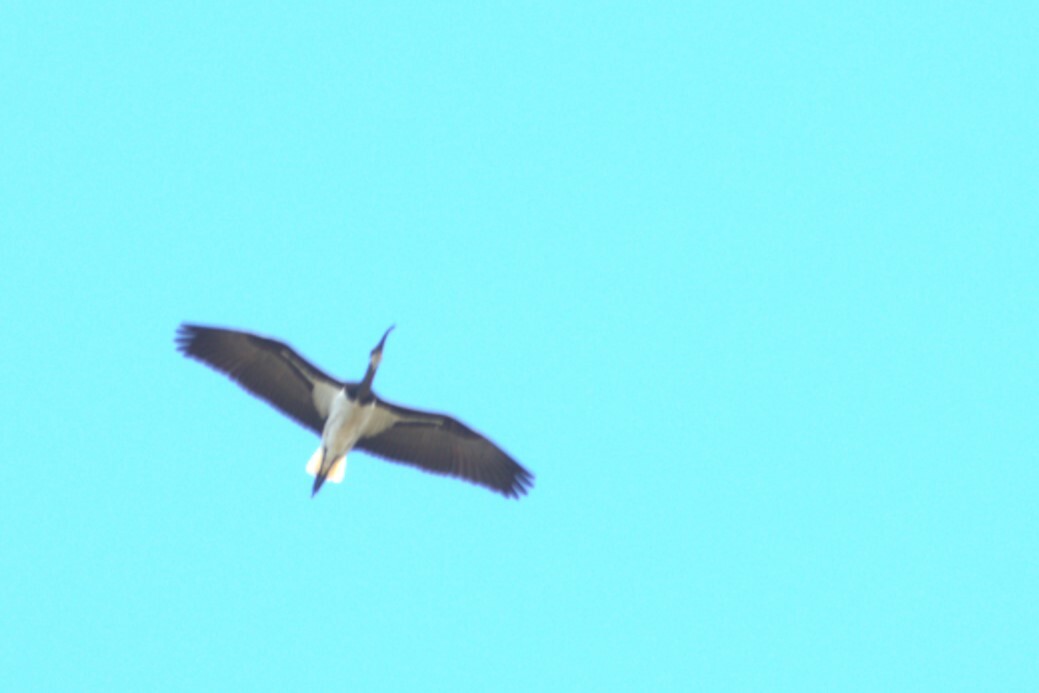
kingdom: Animalia
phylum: Chordata
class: Aves
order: Pelecaniformes
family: Threskiornithidae
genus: Threskiornis
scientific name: Threskiornis spinicollis
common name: Straw-necked ibis
